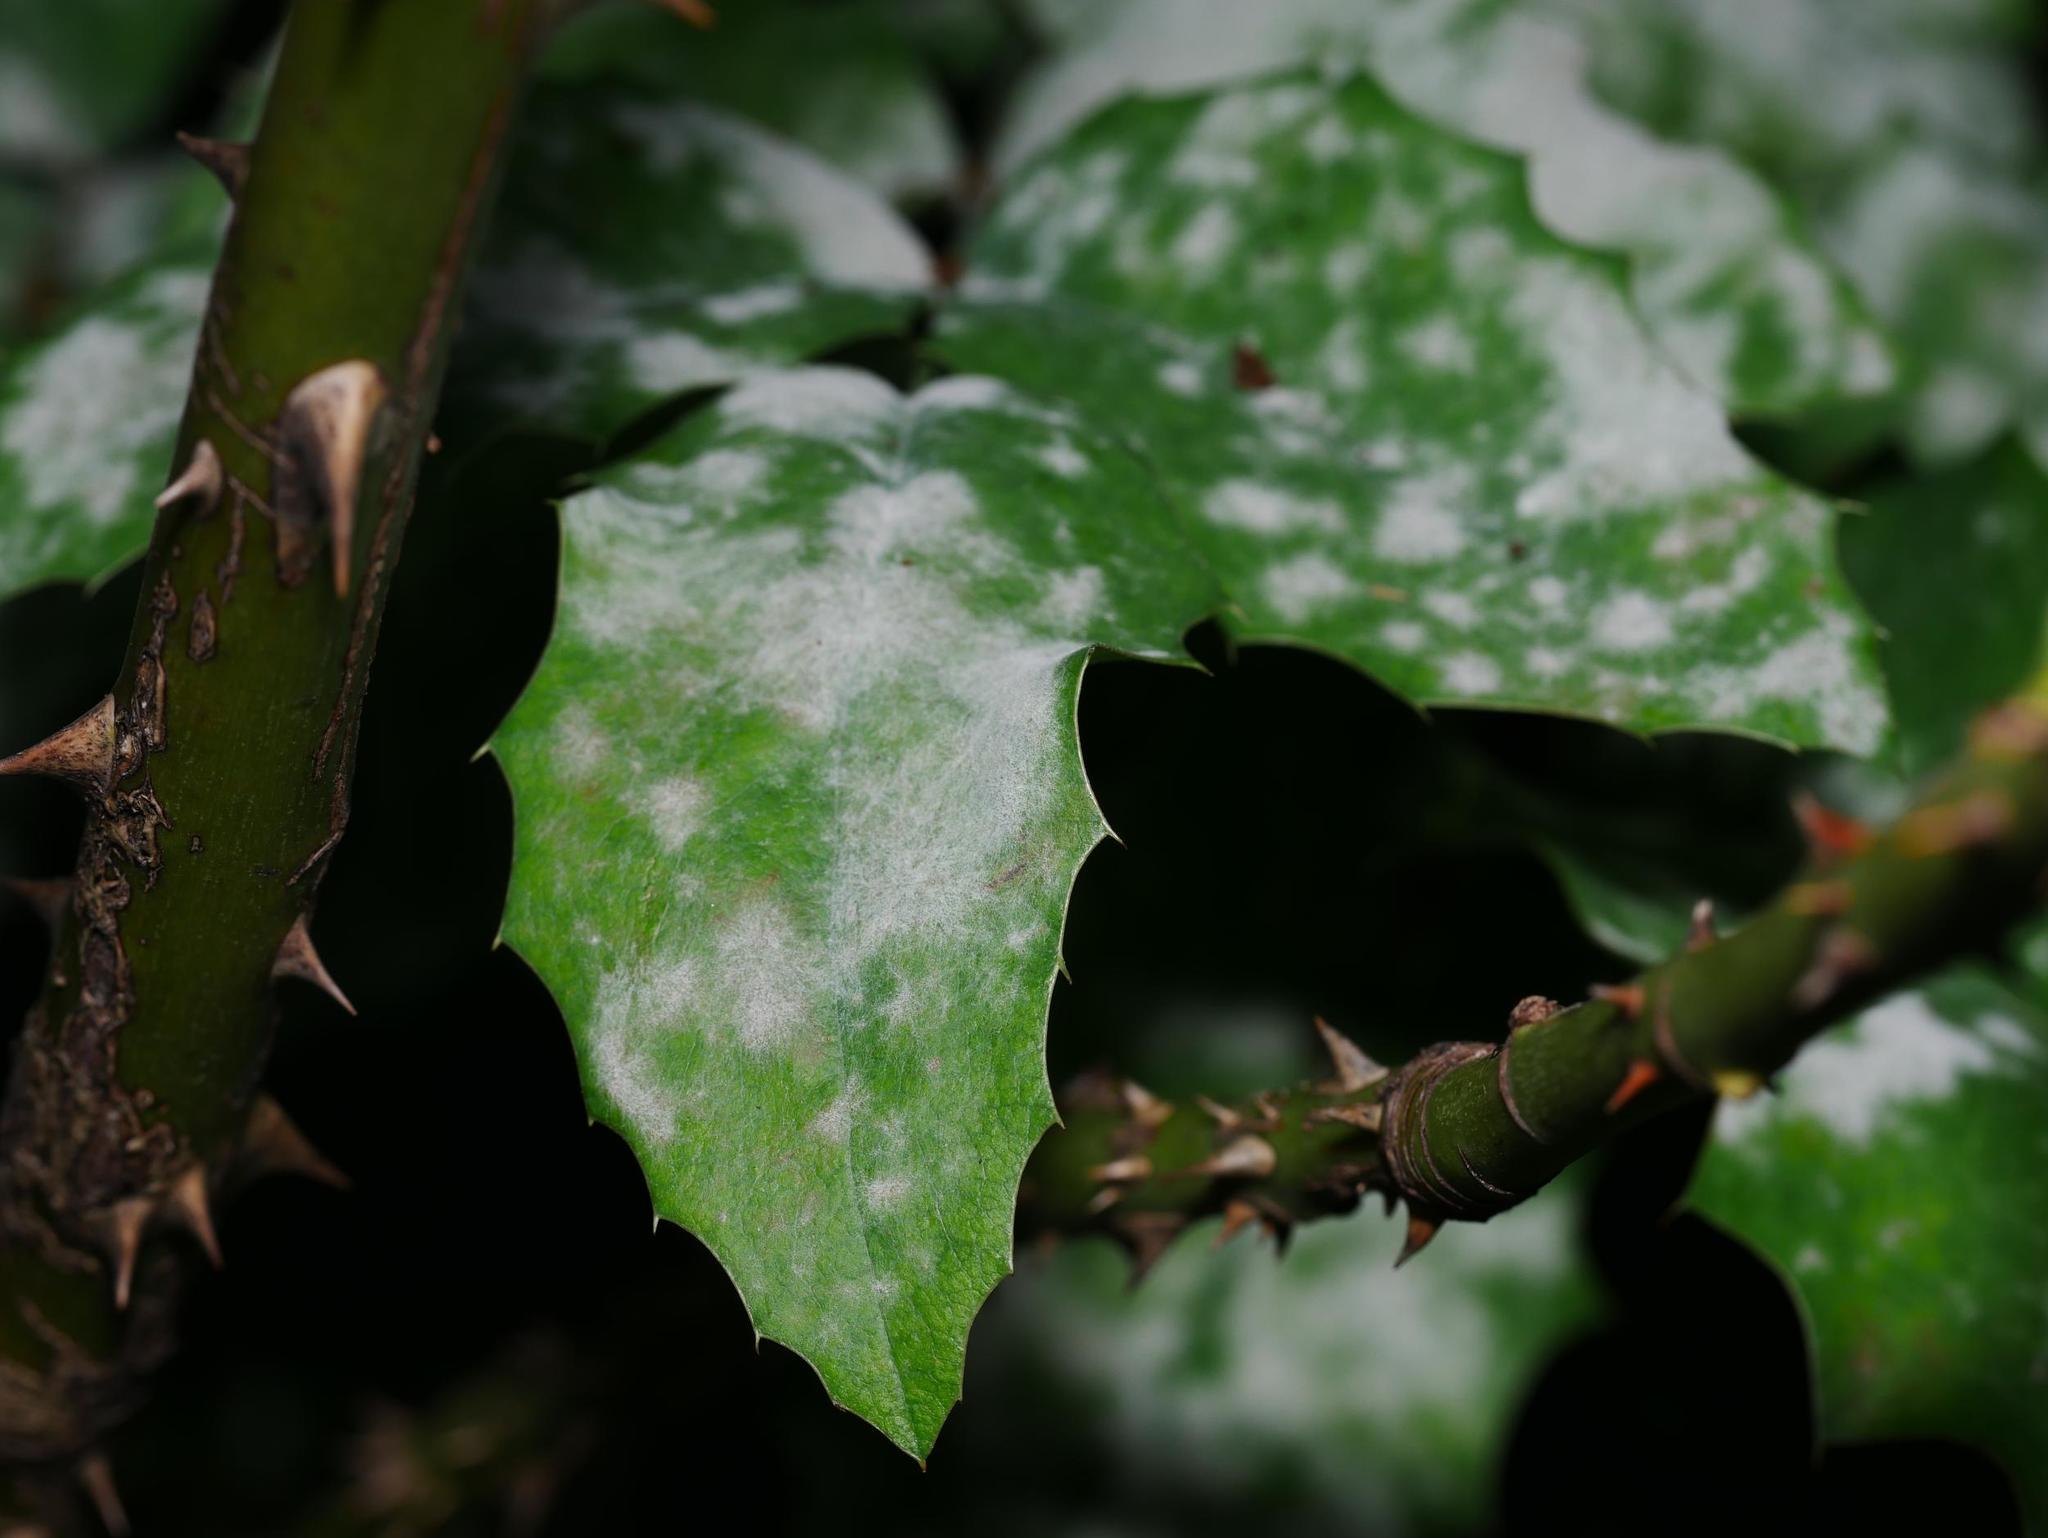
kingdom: Fungi
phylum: Ascomycota
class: Leotiomycetes
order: Helotiales
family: Erysiphaceae
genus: Erysiphe
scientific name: Erysiphe berberidis
